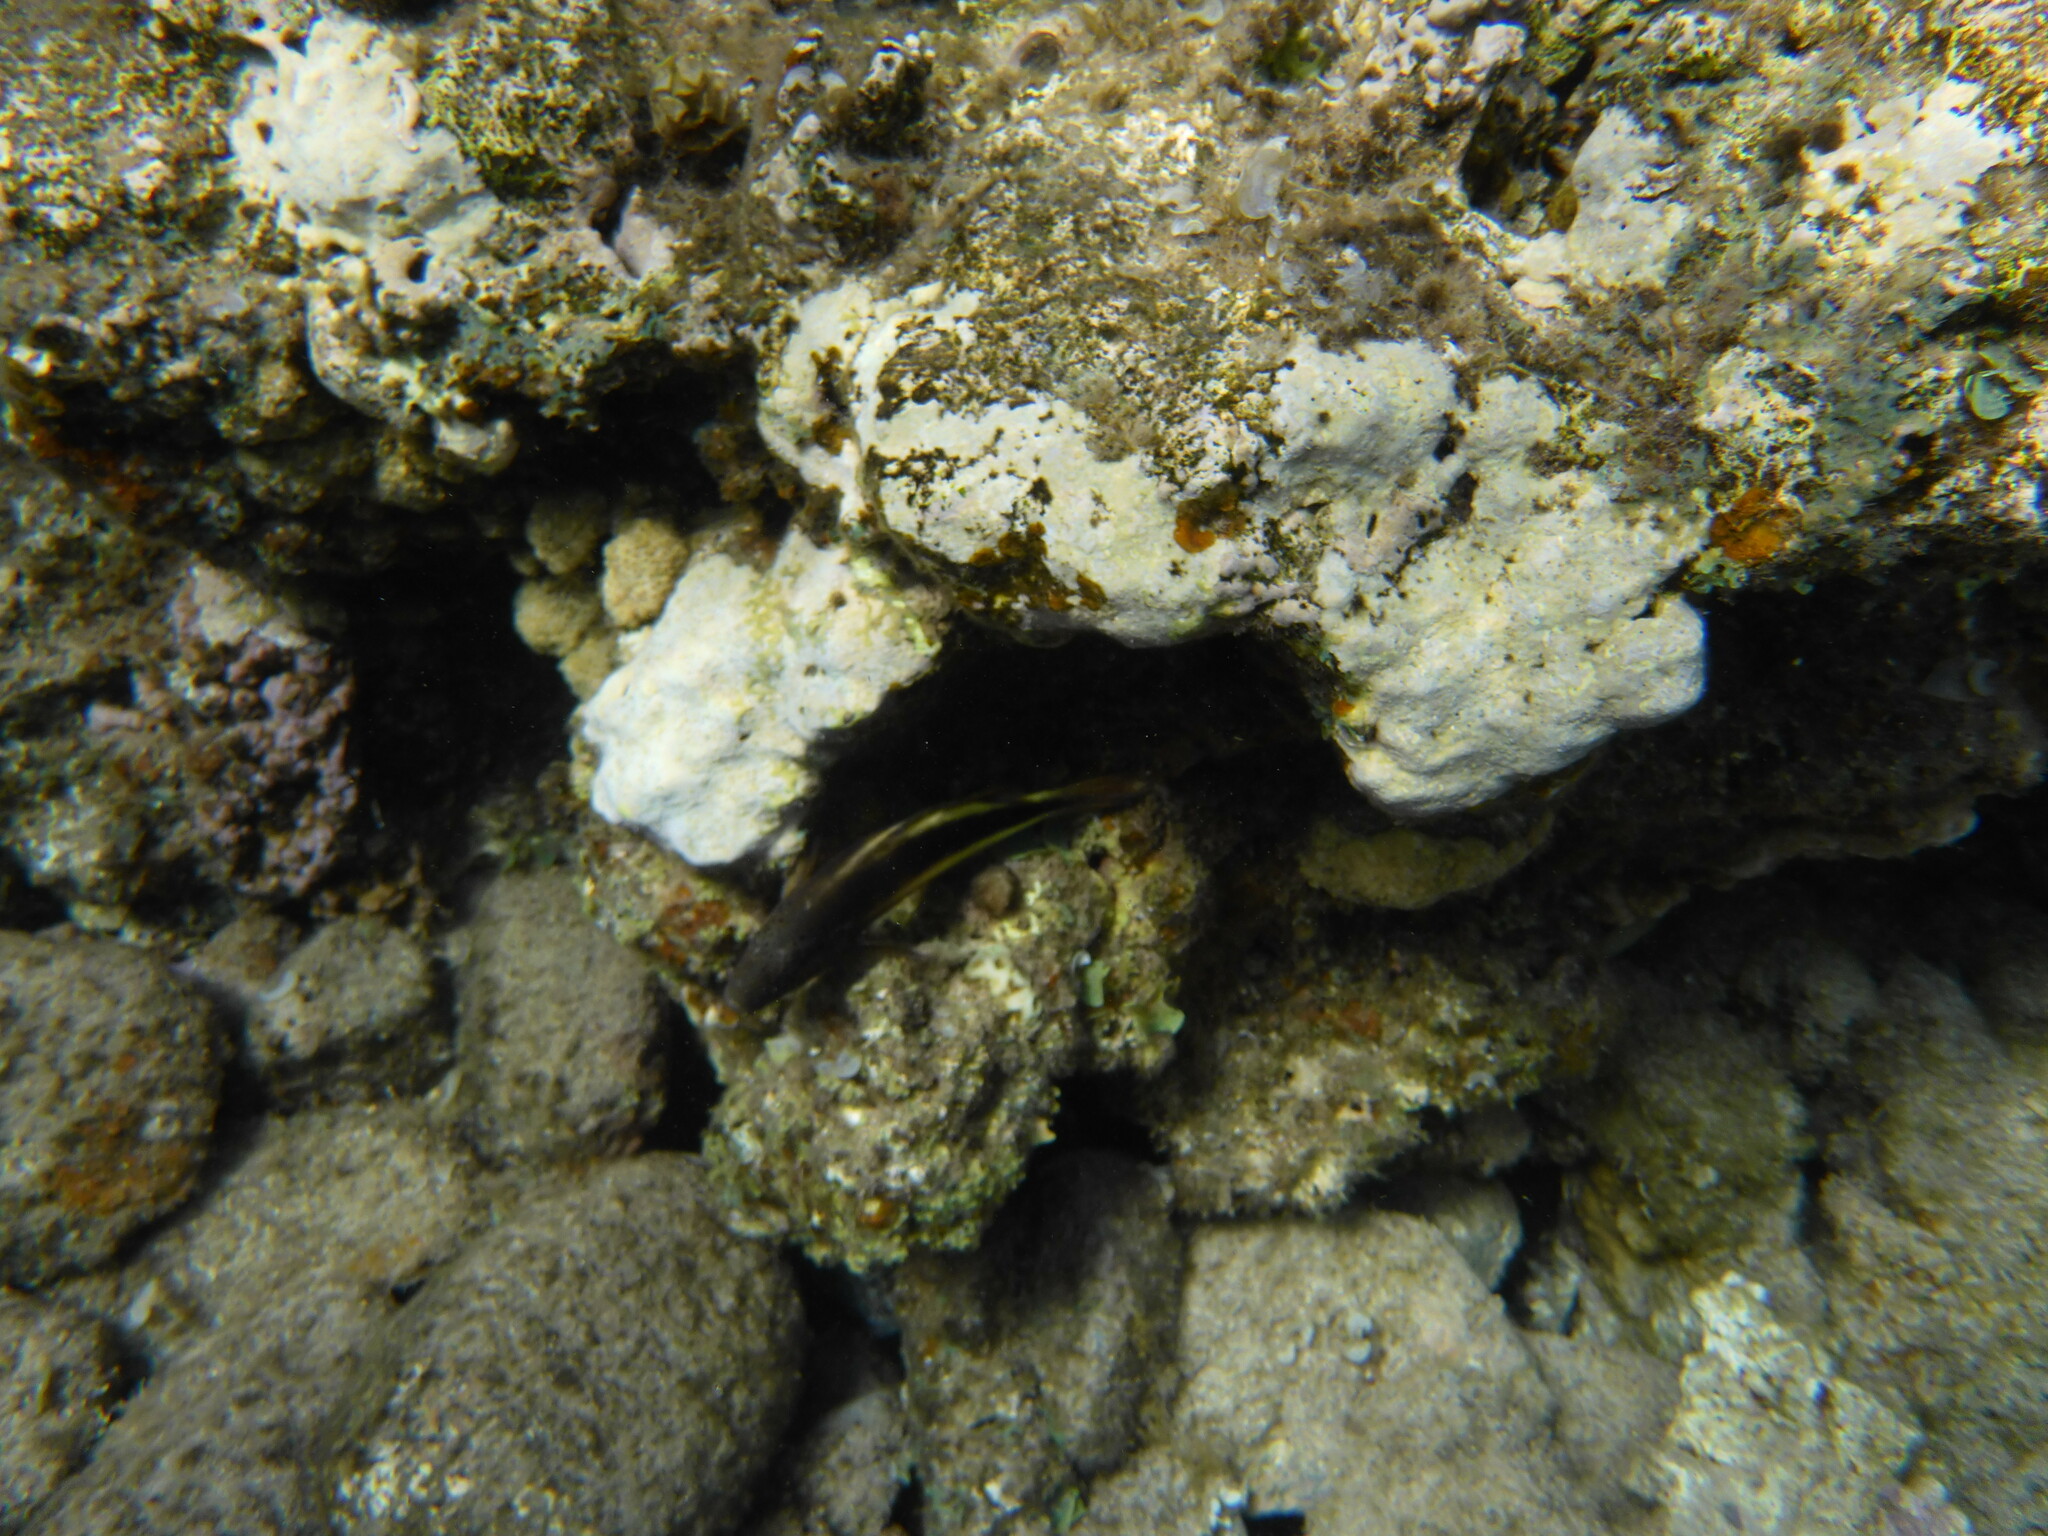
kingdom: Animalia
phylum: Chordata
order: Perciformes
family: Cirrhitidae
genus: Paracirrhites
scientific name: Paracirrhites forsteri
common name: Freckled hawkfish
